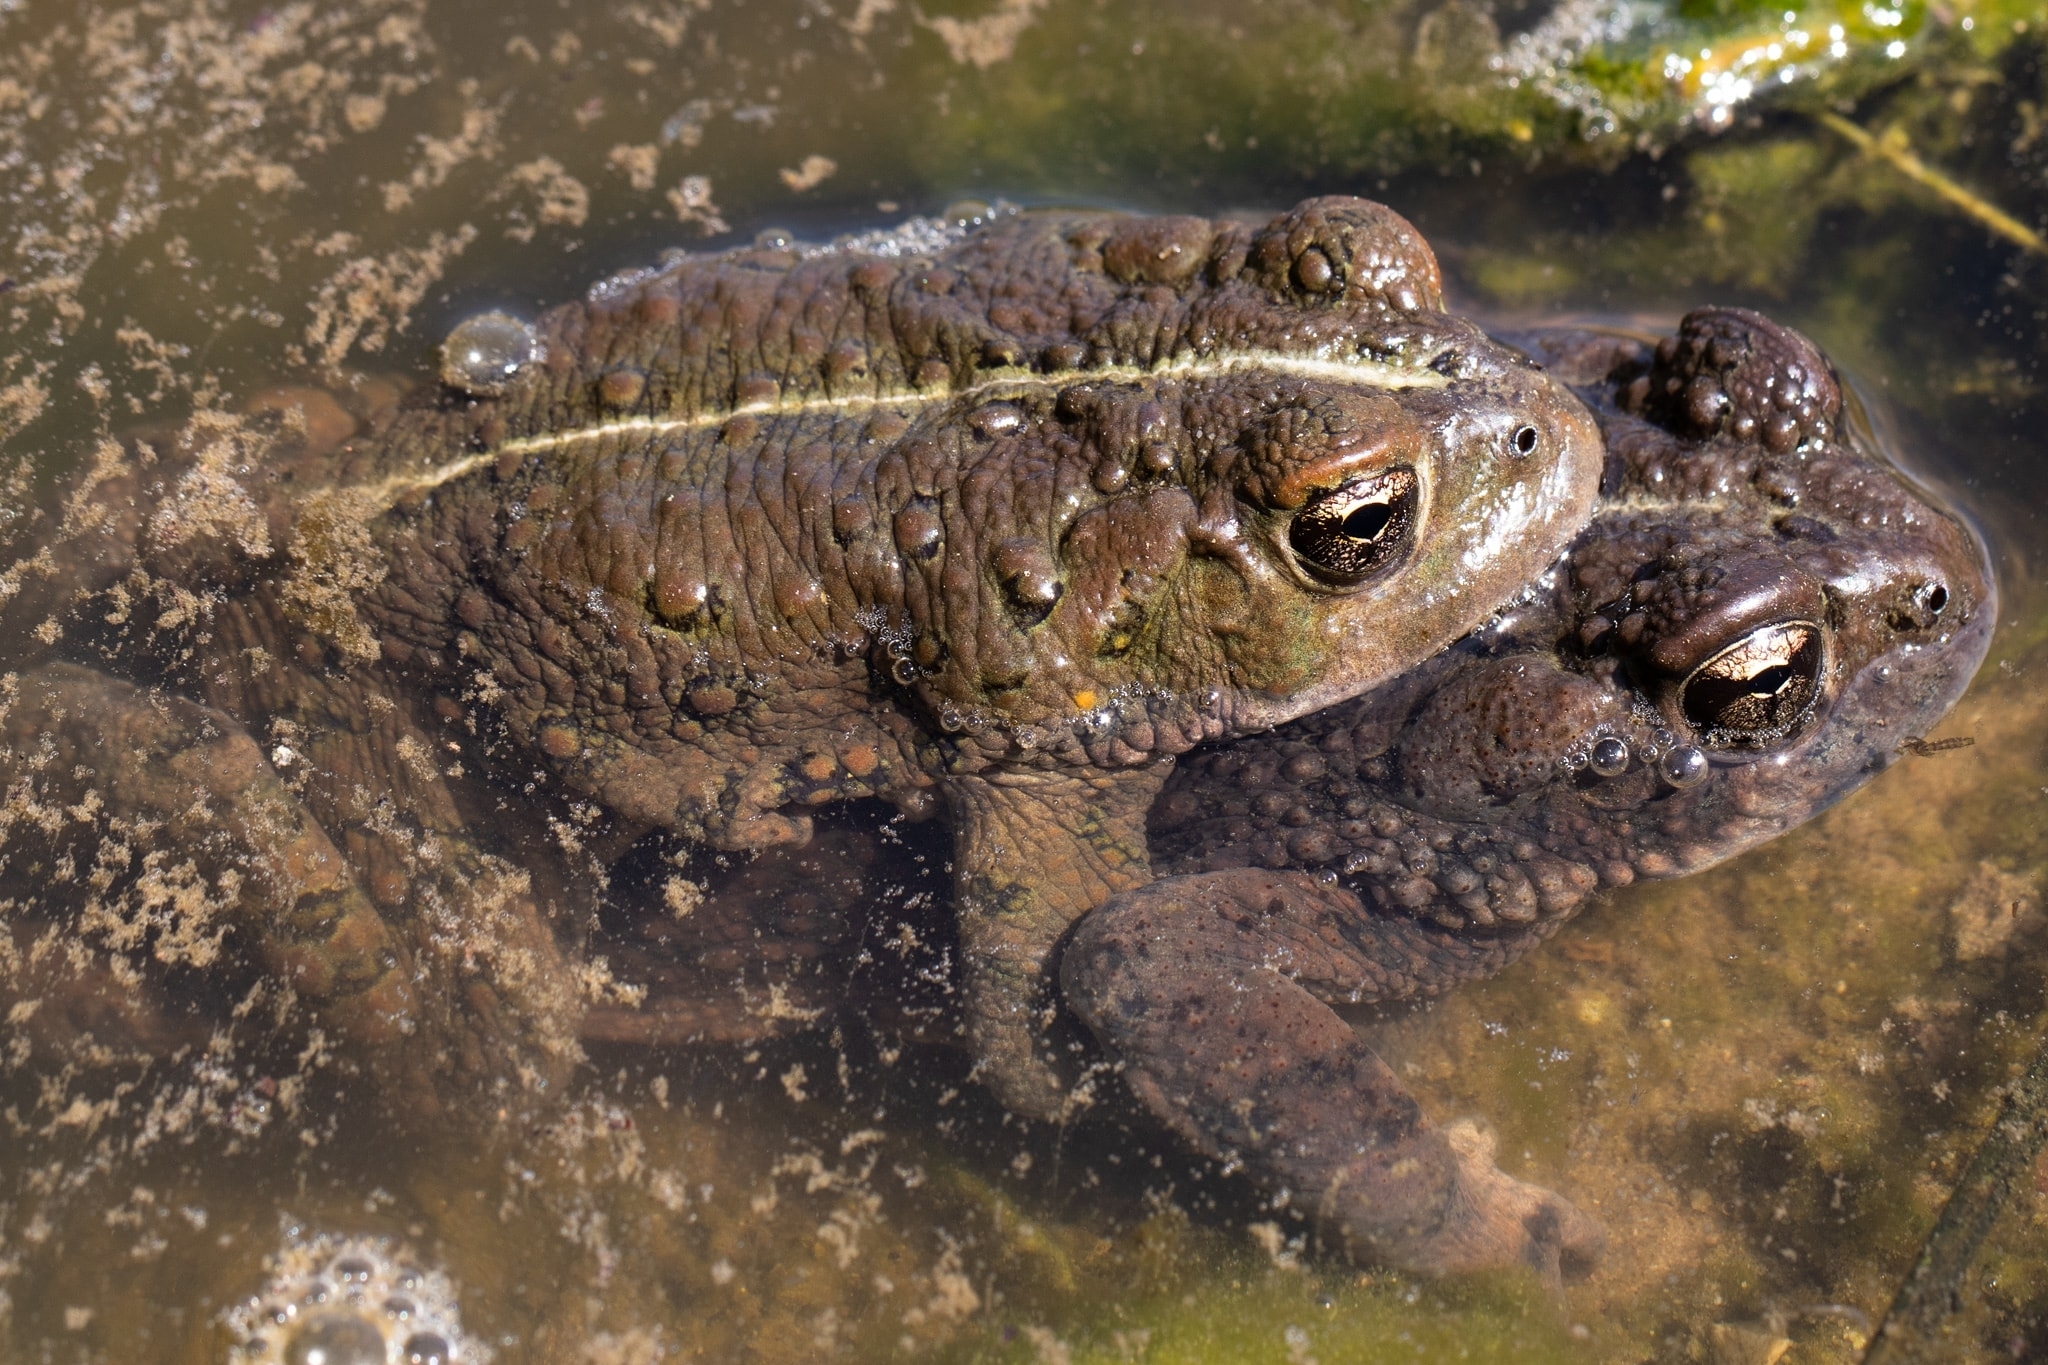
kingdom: Animalia
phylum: Chordata
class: Amphibia
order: Anura
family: Bufonidae
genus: Anaxyrus
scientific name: Anaxyrus boreas
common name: Western toad
